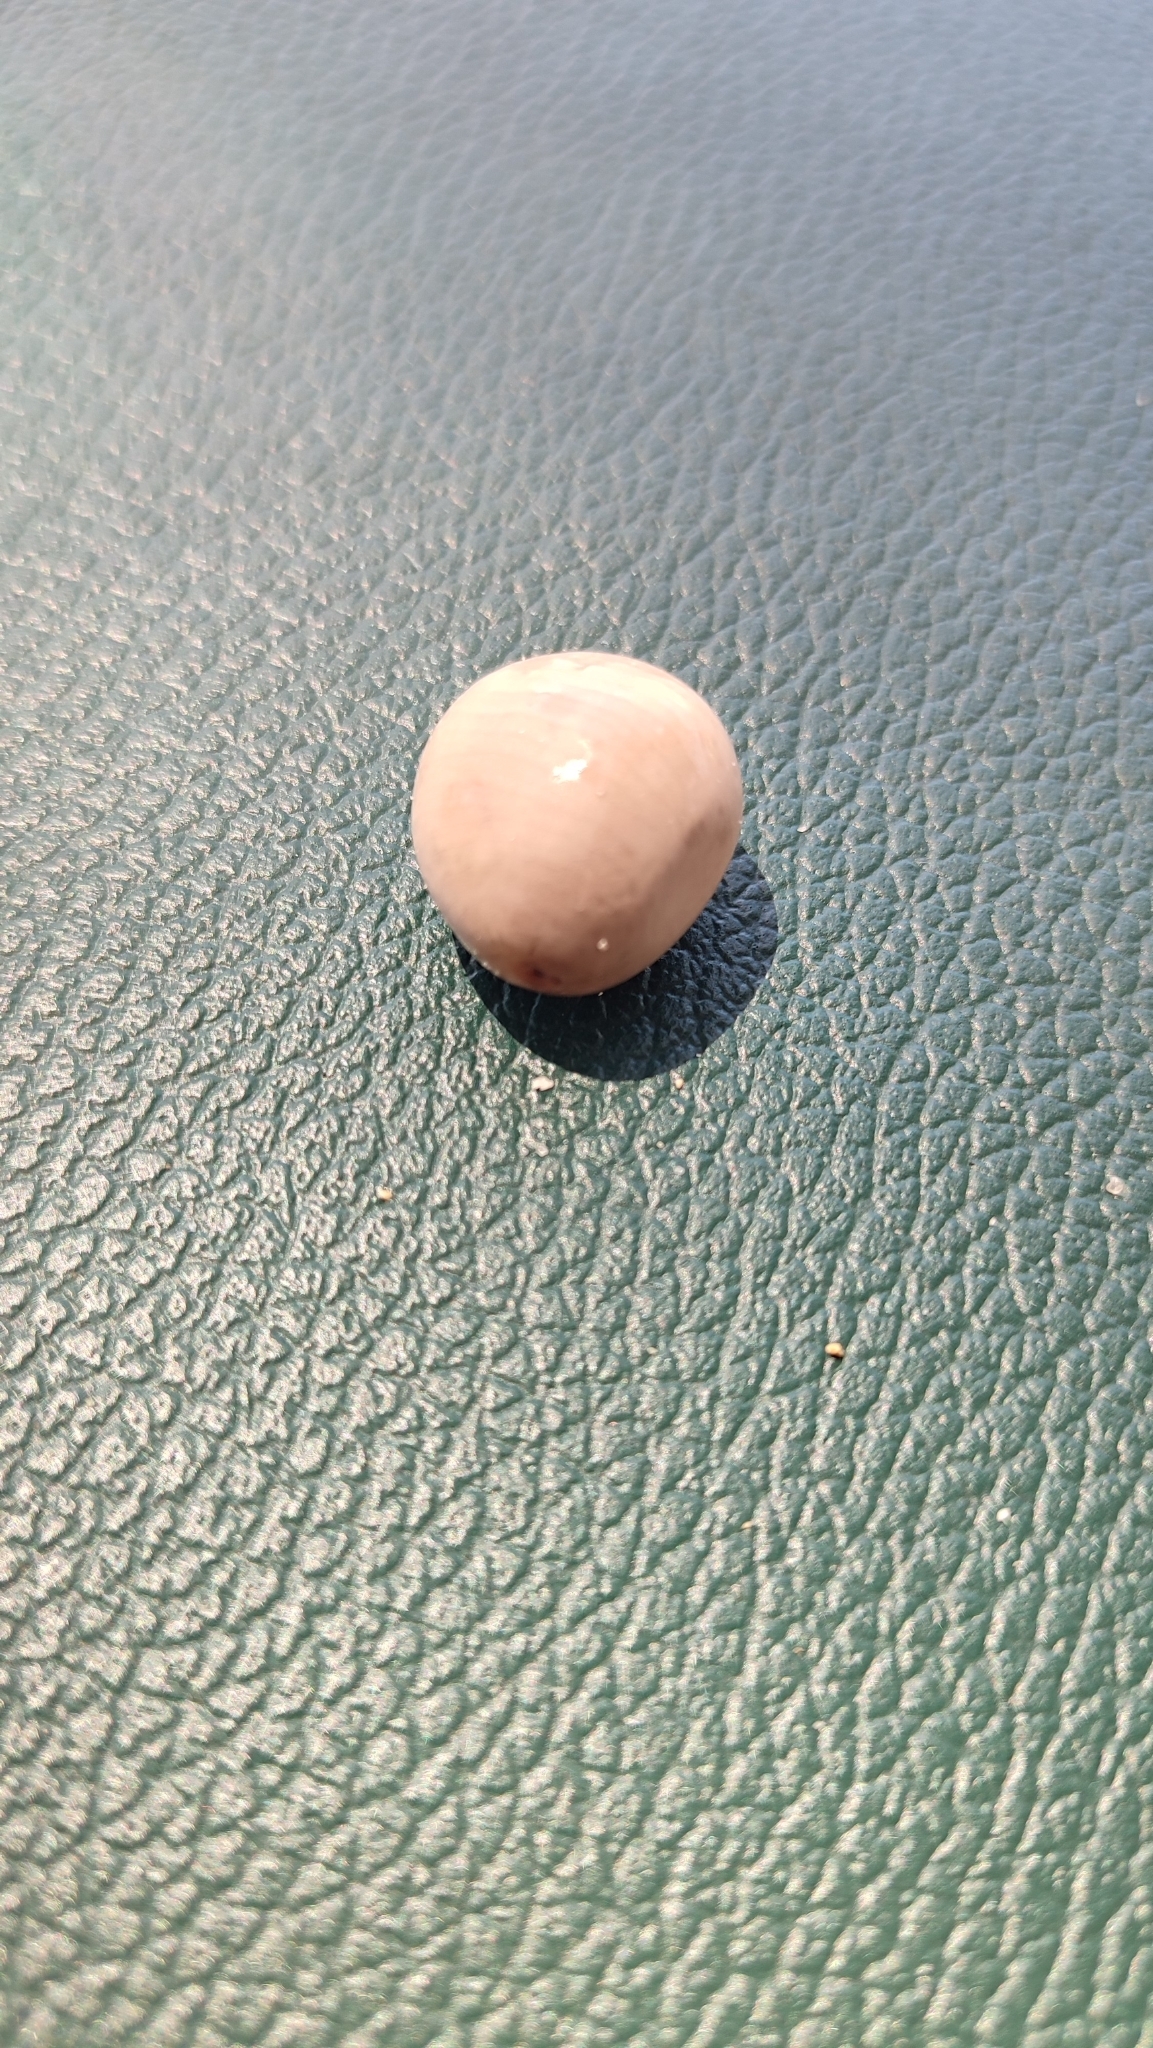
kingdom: Plantae
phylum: Tracheophyta
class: Magnoliopsida
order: Fabales
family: Fabaceae
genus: Guilandina
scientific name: Guilandina bonduc
